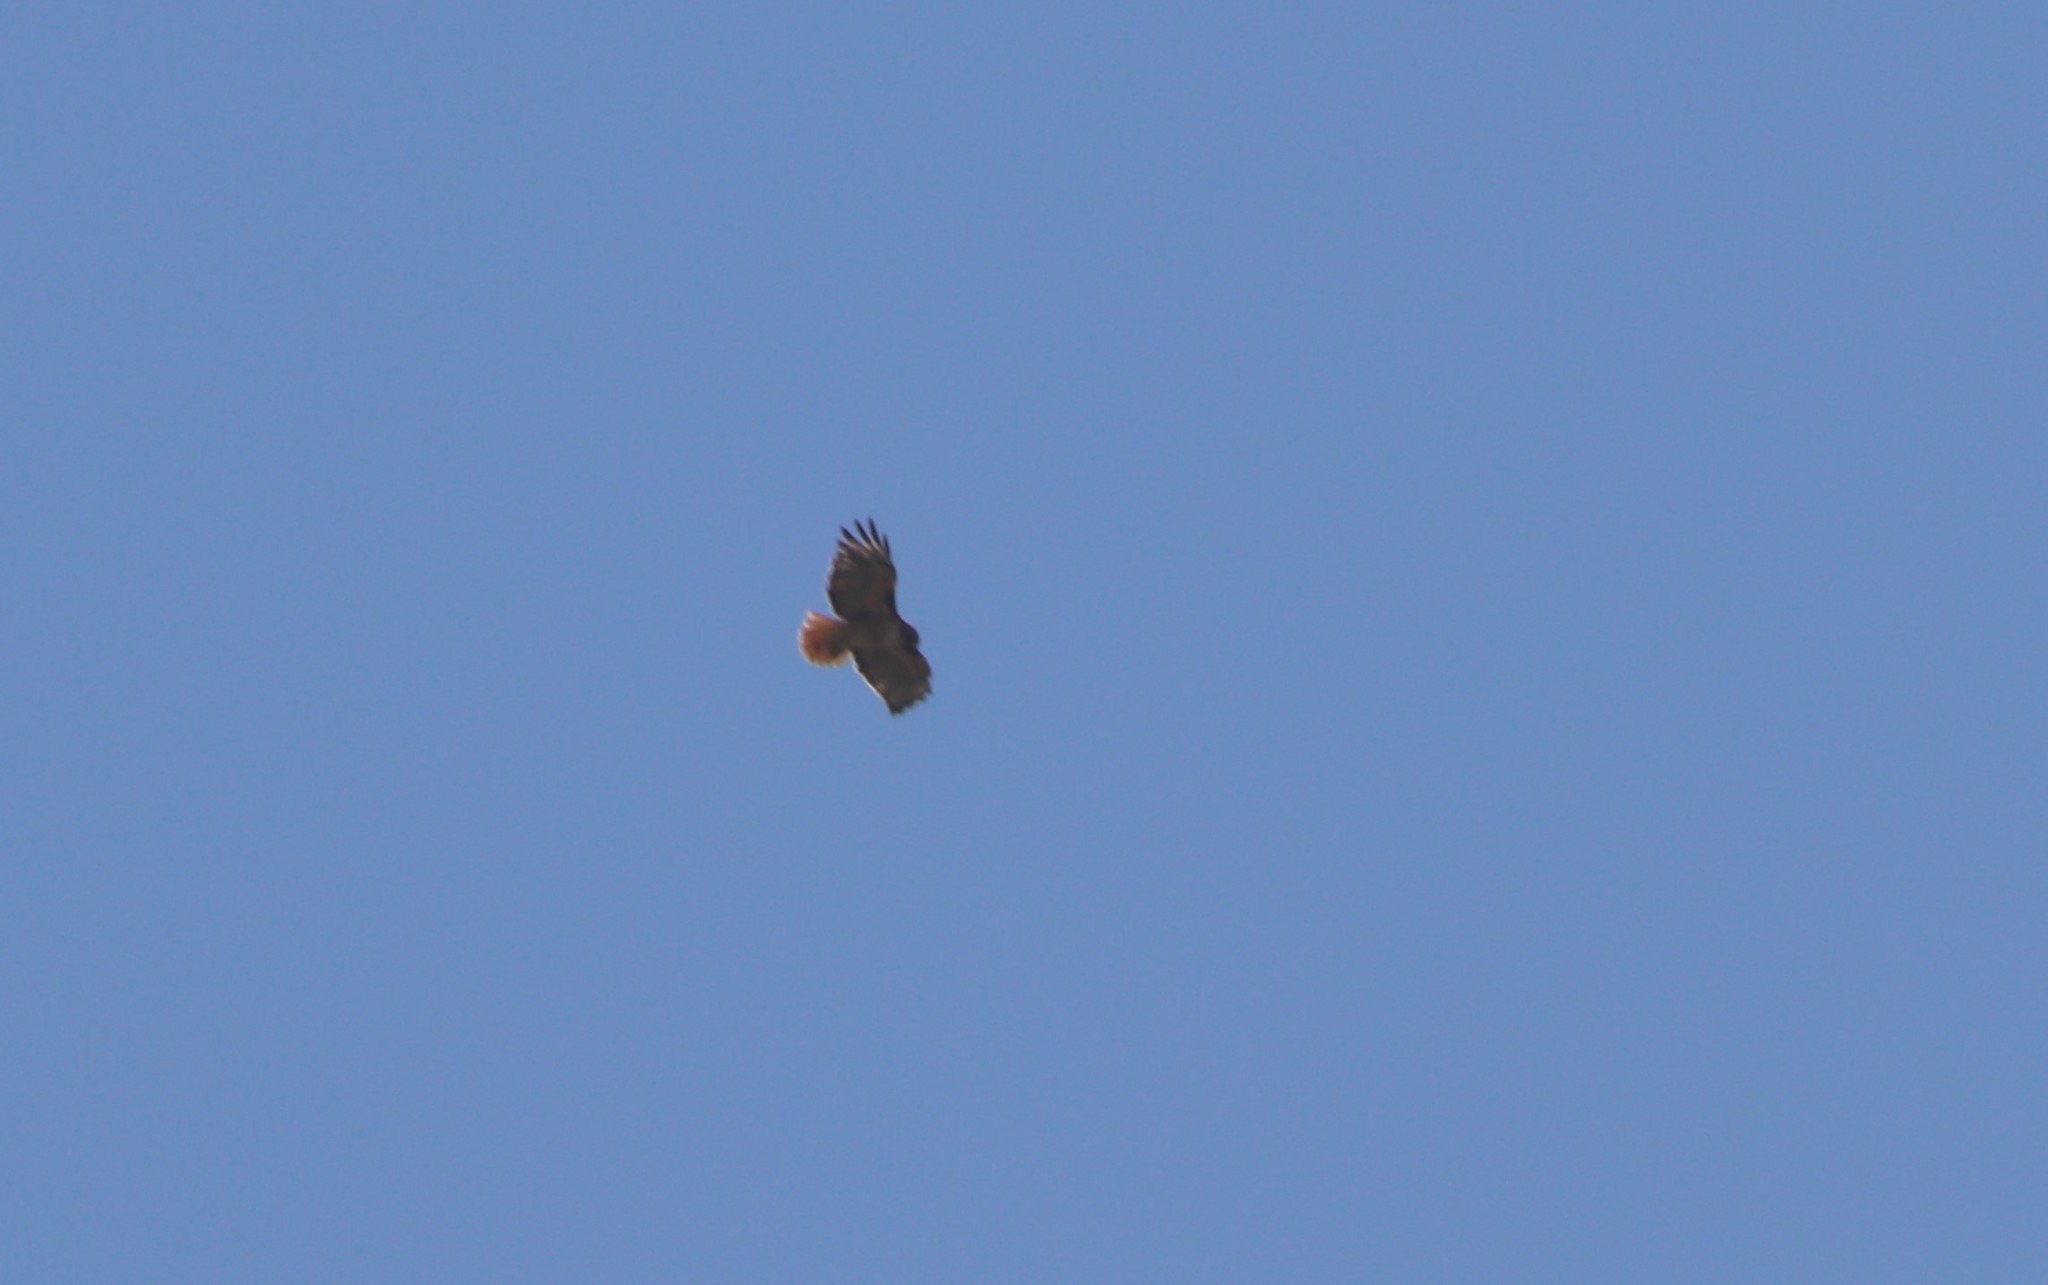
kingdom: Animalia
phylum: Chordata
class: Aves
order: Accipitriformes
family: Accipitridae
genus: Buteo
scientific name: Buteo jamaicensis
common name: Red-tailed hawk
